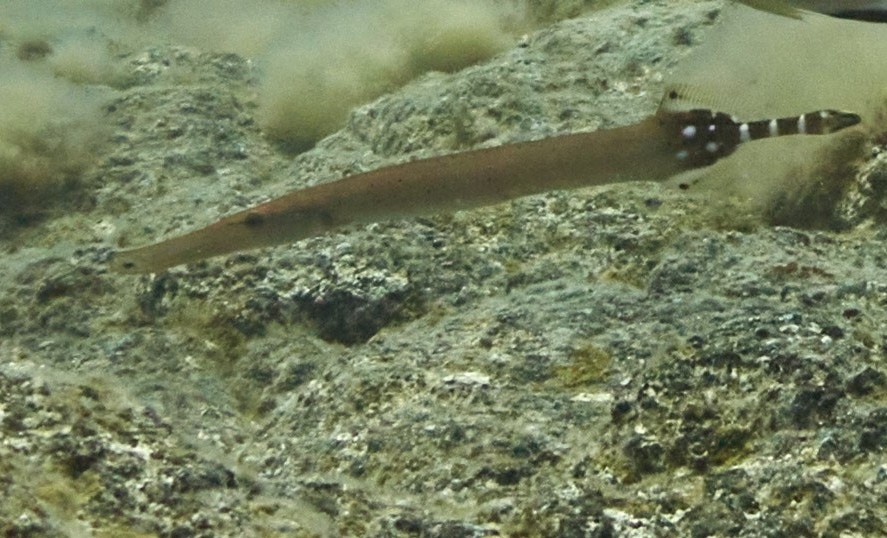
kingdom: Animalia
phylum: Chordata
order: Syngnathiformes
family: Aulostomidae
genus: Aulostomus
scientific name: Aulostomus strigosus
